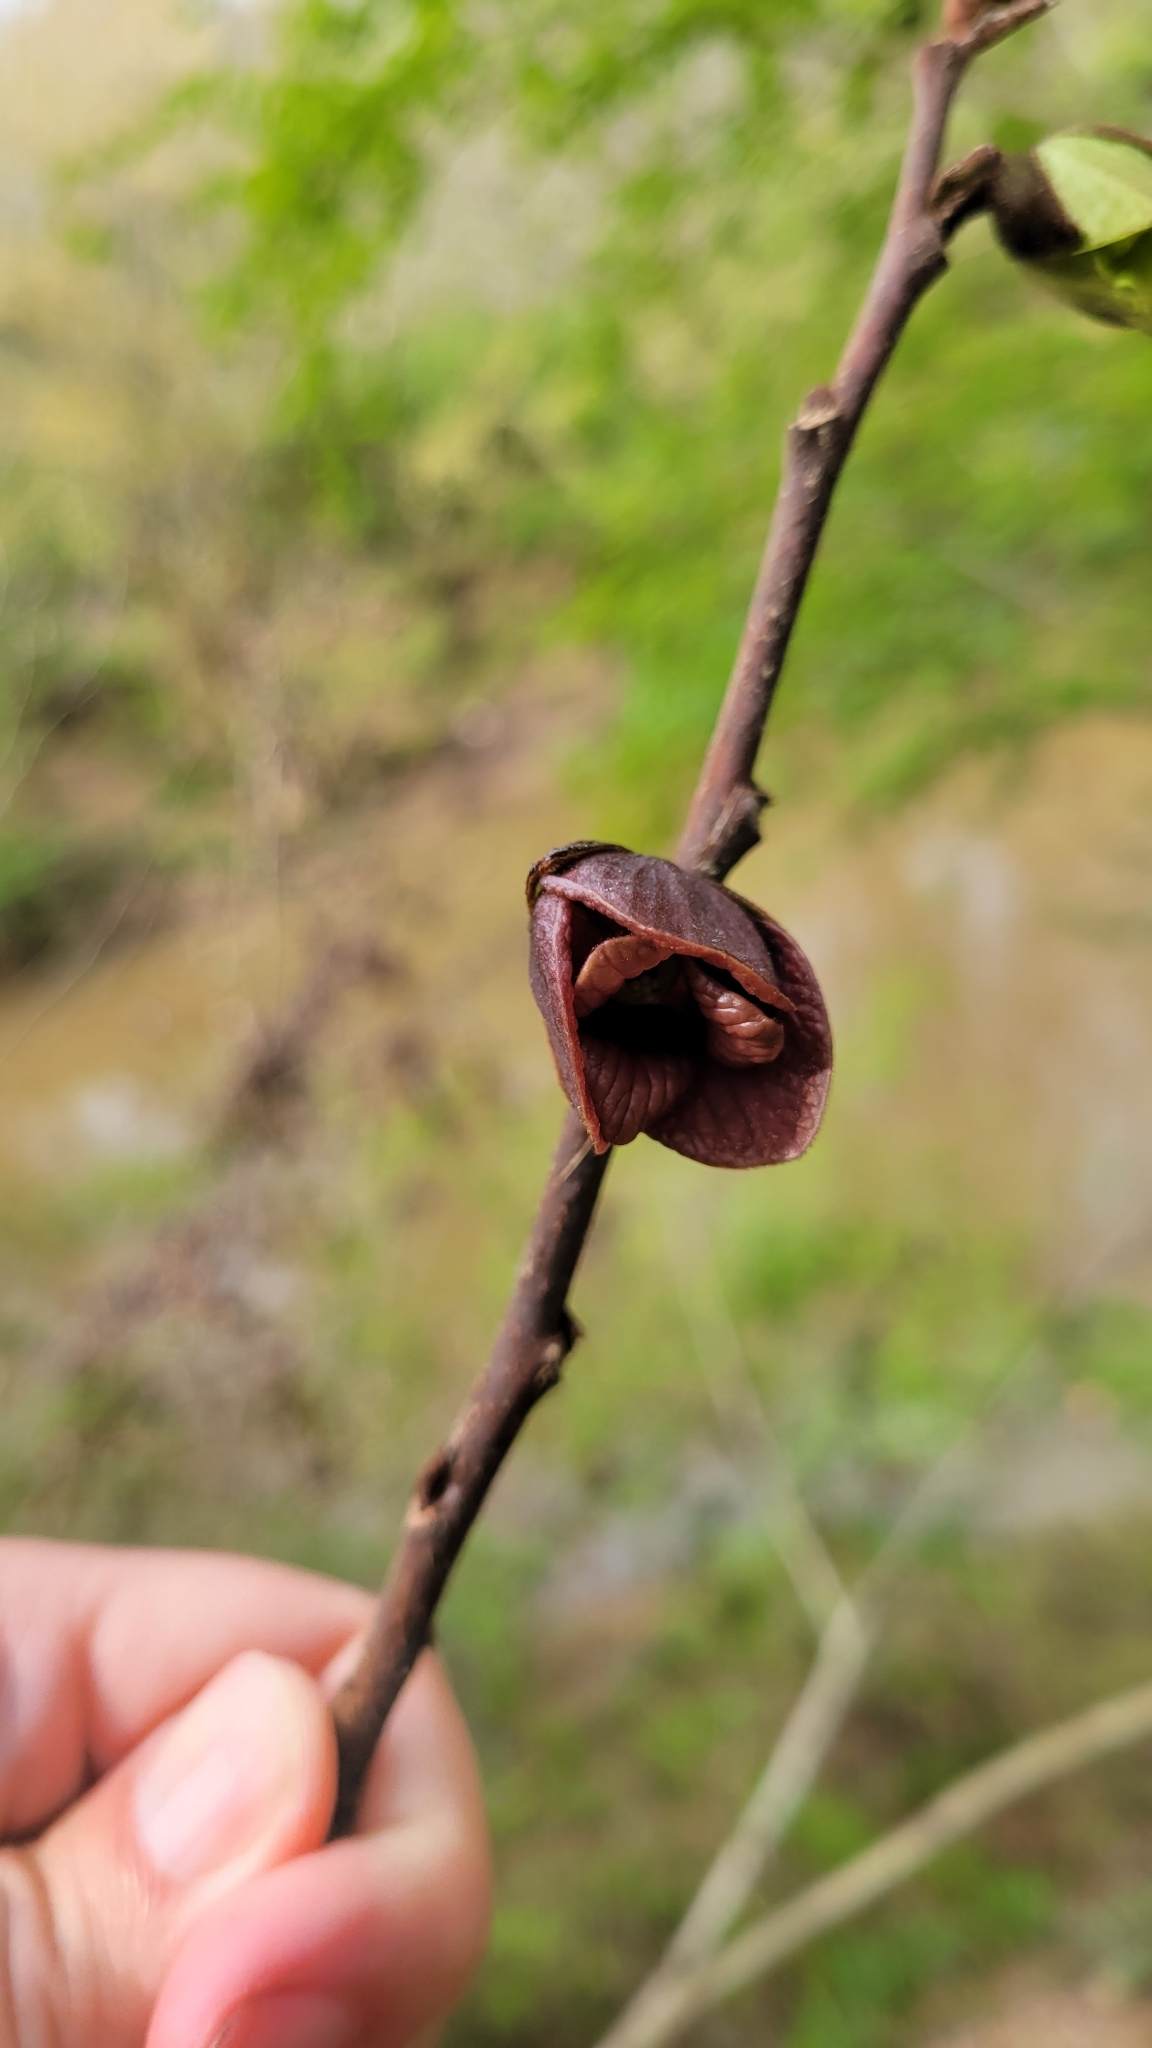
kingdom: Plantae
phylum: Tracheophyta
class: Magnoliopsida
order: Magnoliales
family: Annonaceae
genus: Asimina
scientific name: Asimina triloba
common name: Dog-banana
